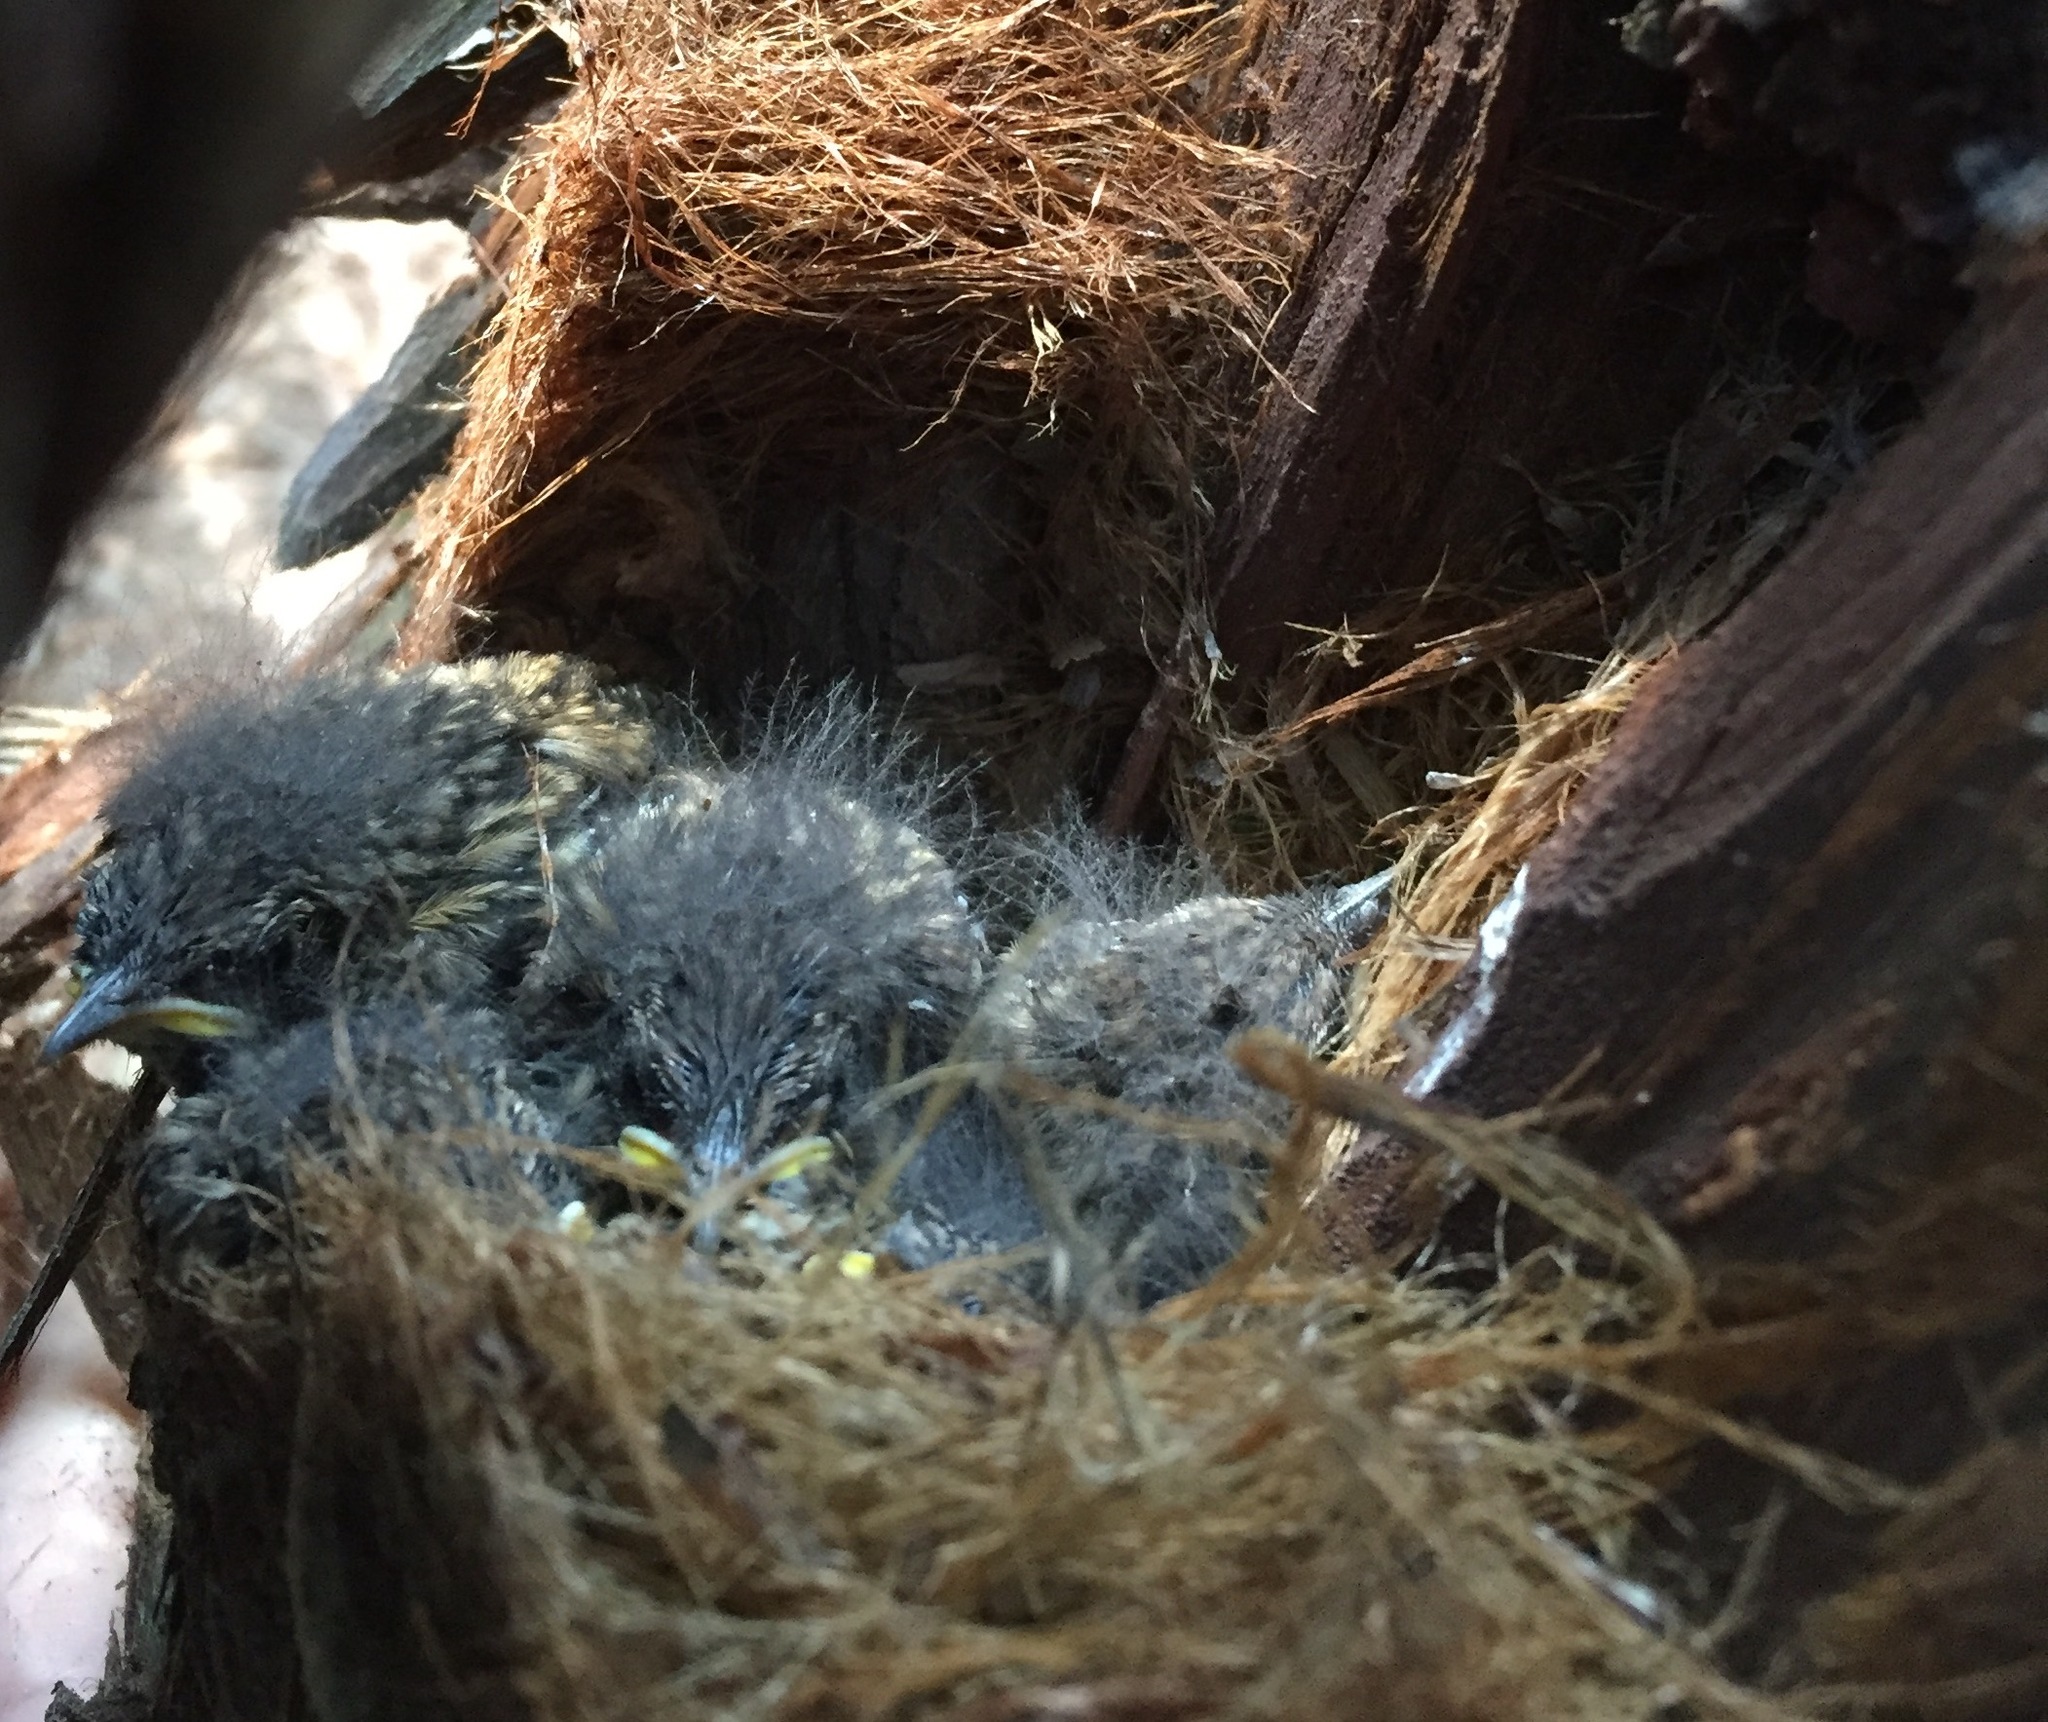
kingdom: Animalia
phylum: Chordata
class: Aves
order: Passeriformes
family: Tyrannidae
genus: Empidonax
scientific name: Empidonax difficilis
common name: Pacific-slope flycatcher
